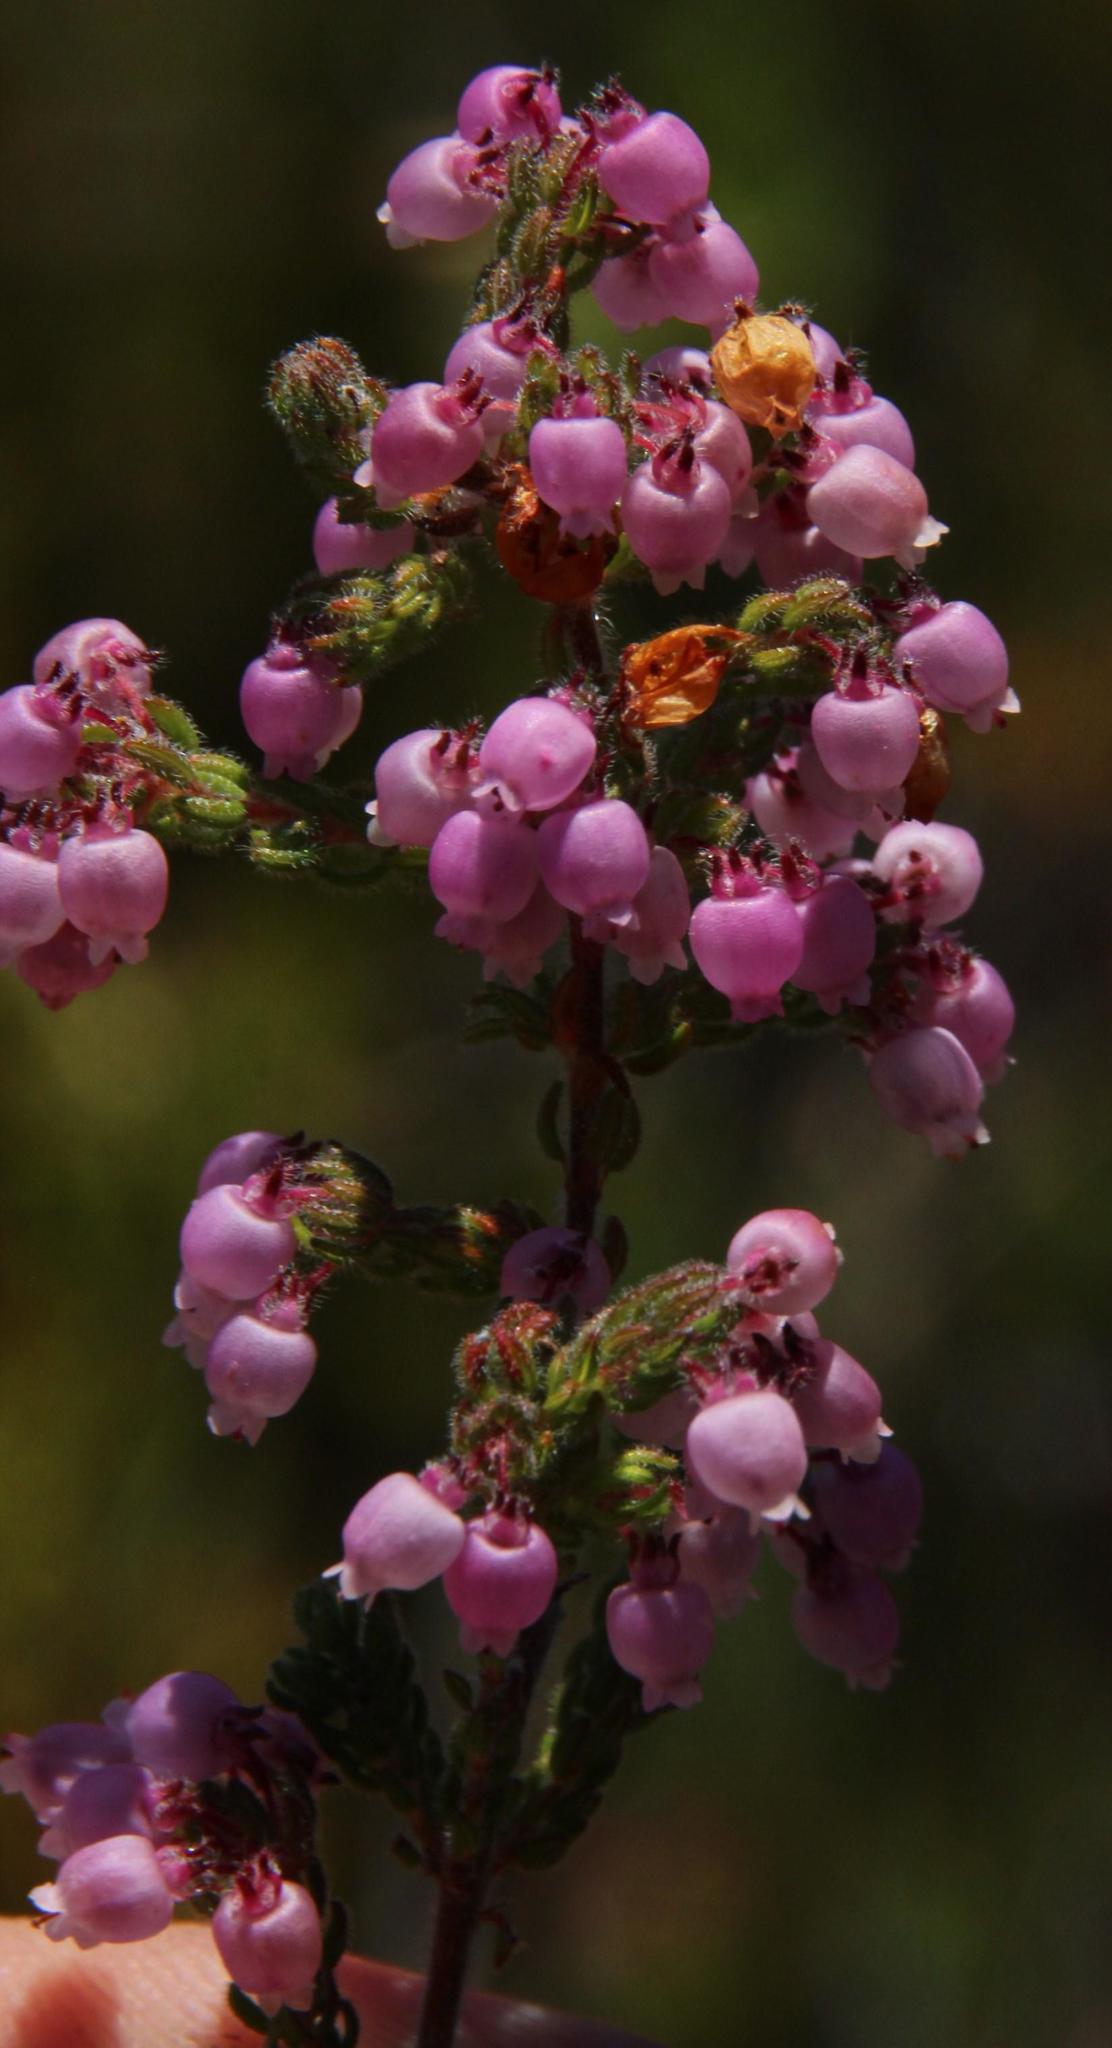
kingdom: Plantae
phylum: Tracheophyta
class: Magnoliopsida
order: Ericales
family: Ericaceae
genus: Erica
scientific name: Erica bergiana
